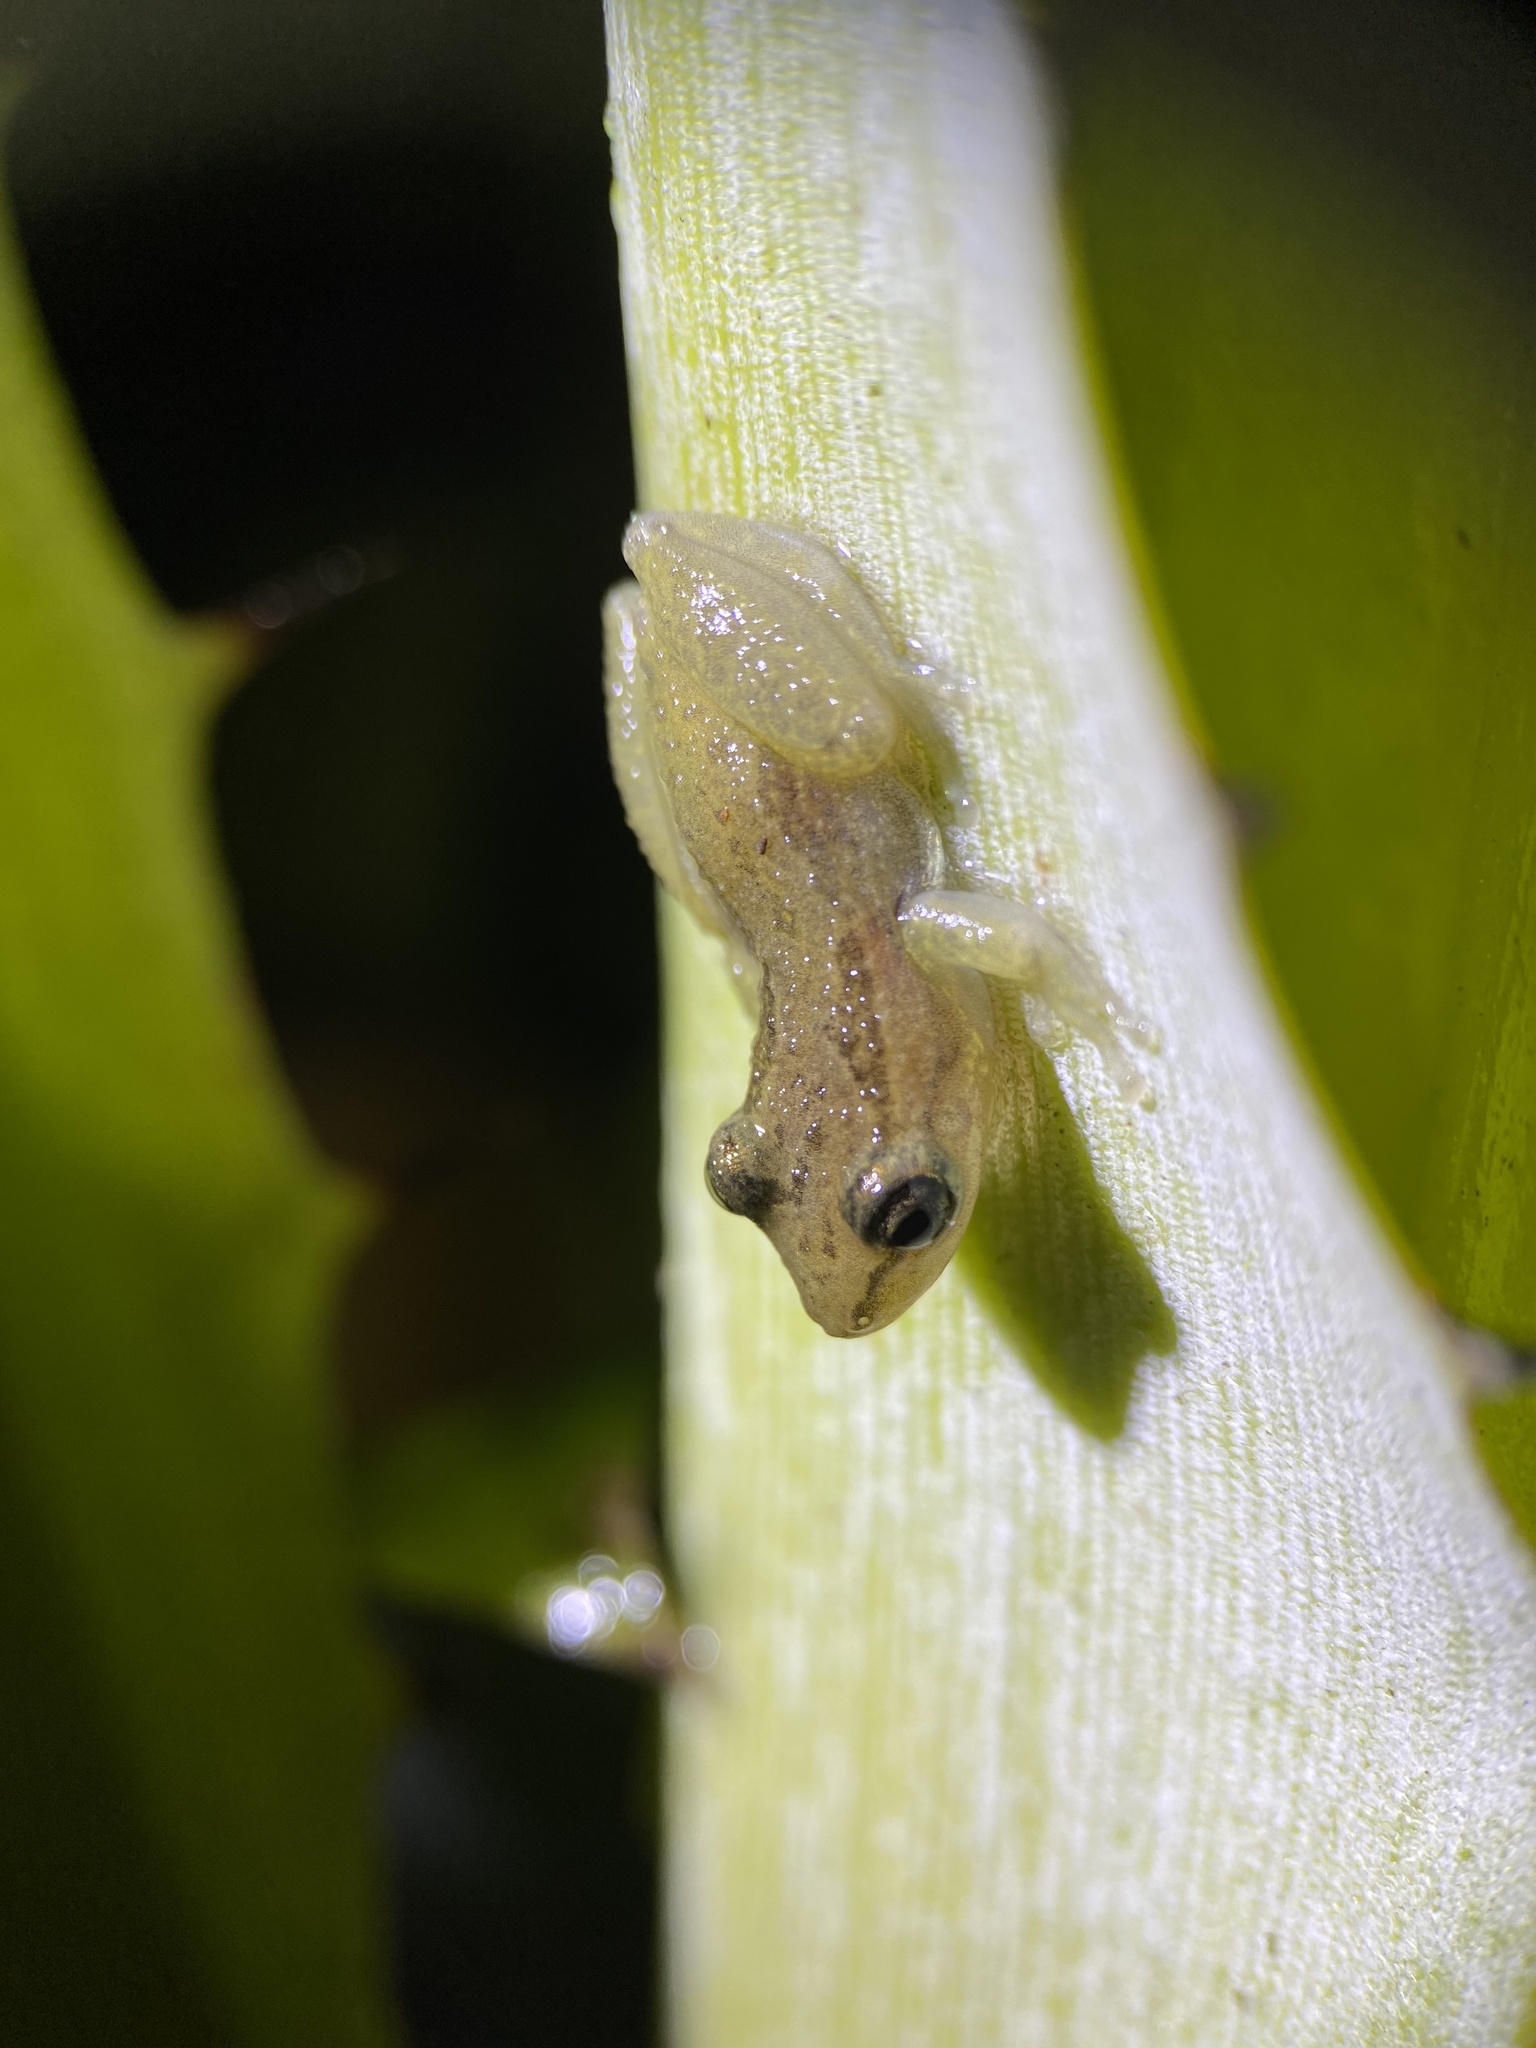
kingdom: Animalia
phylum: Chordata
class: Amphibia
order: Anura
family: Hylidae
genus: Scinax
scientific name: Scinax staufferi
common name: Stauffer's long-nosed treefrog
